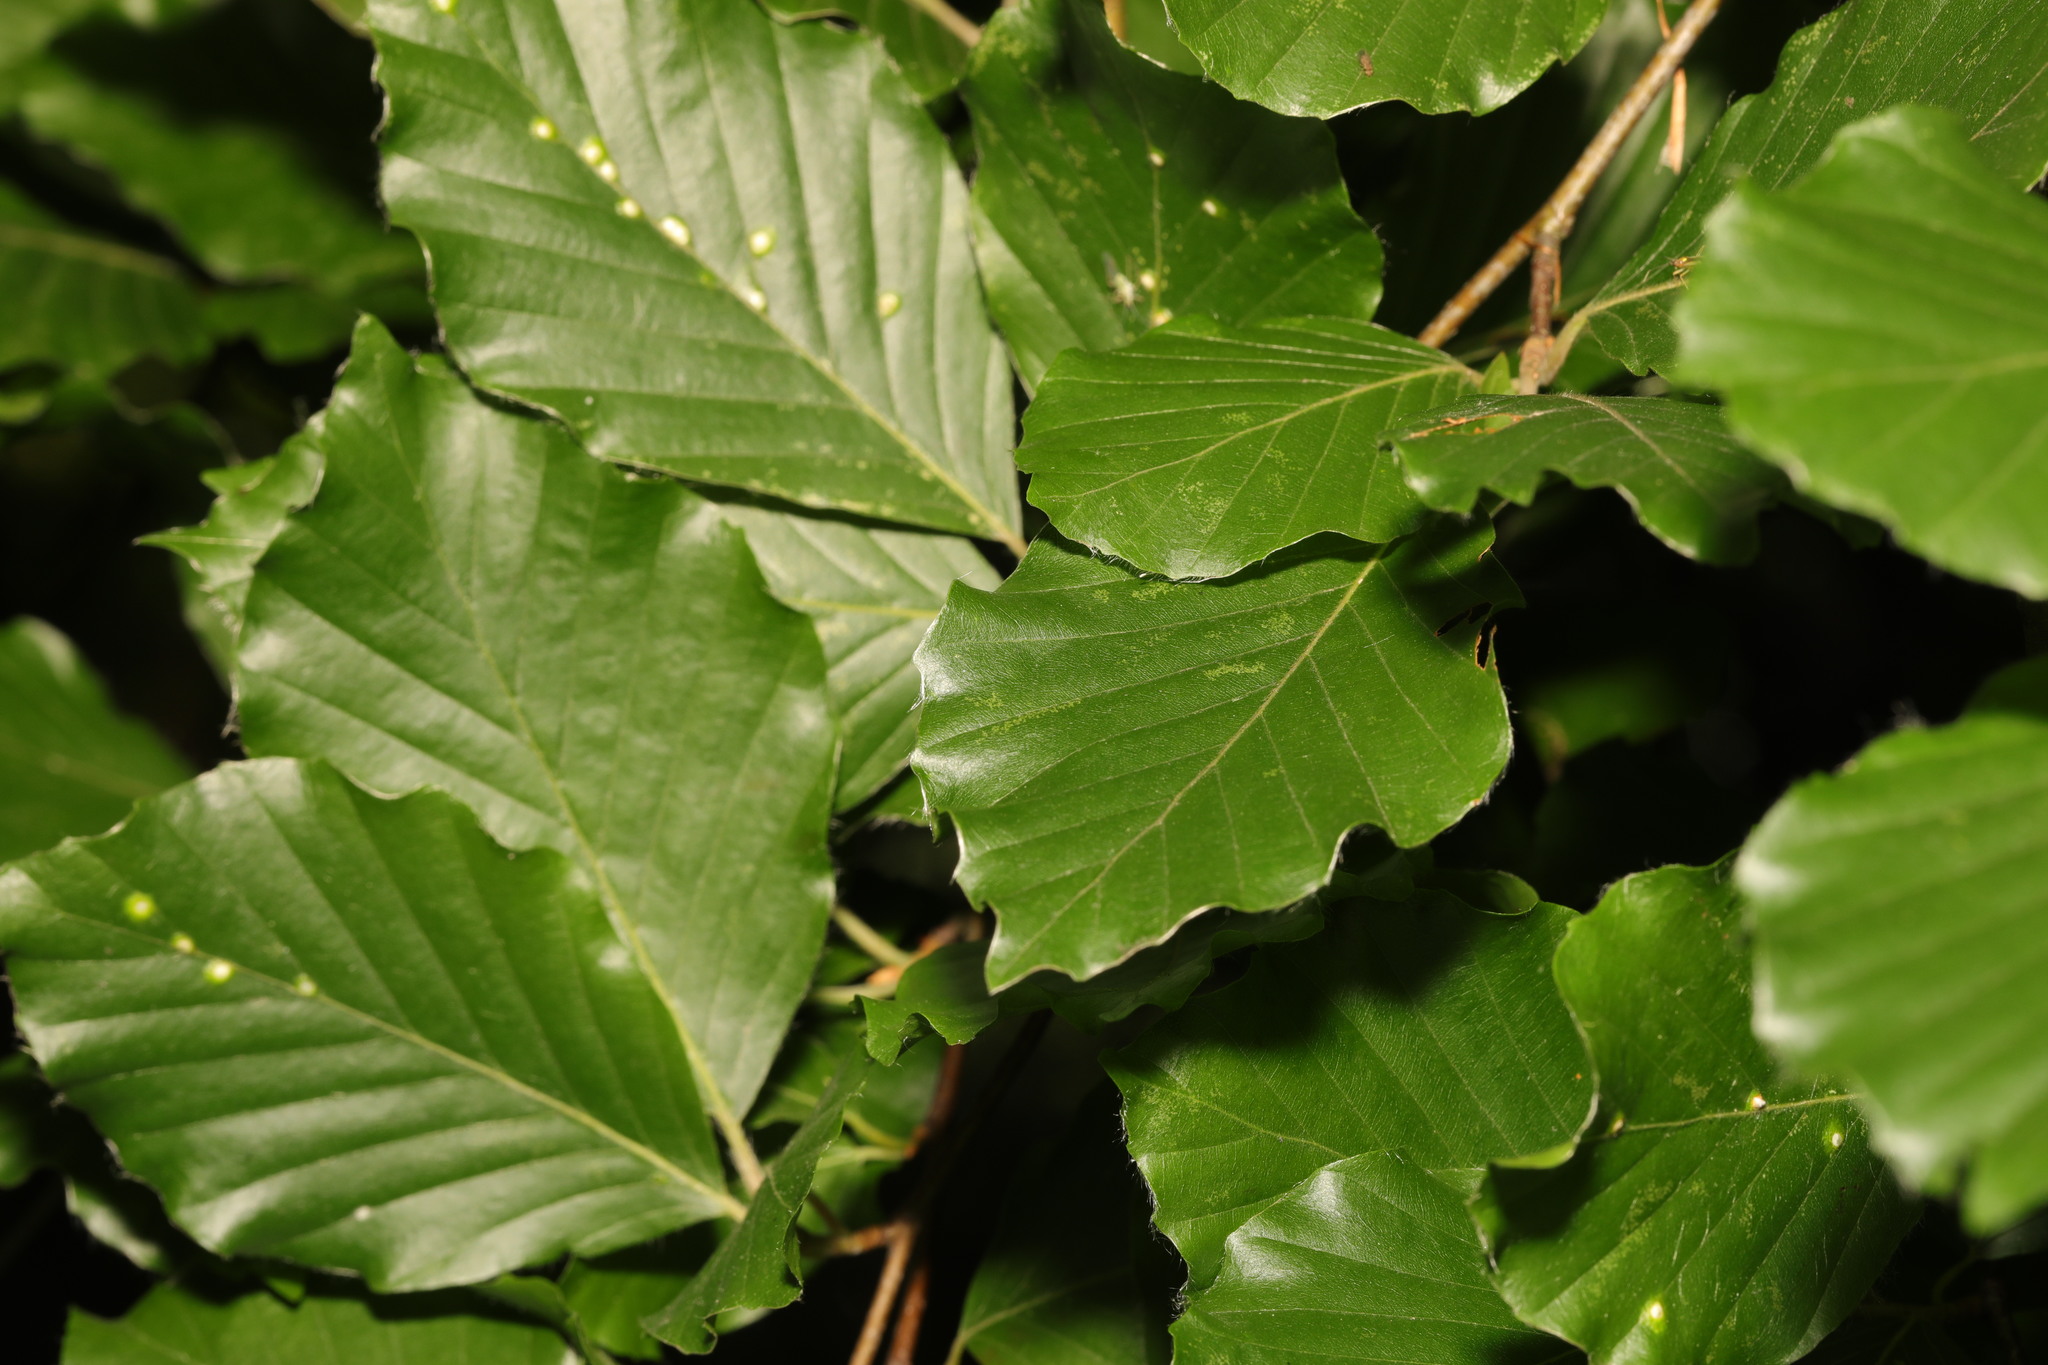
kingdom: Plantae
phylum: Tracheophyta
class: Magnoliopsida
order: Fagales
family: Fagaceae
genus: Fagus
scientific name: Fagus sylvatica
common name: Beech
